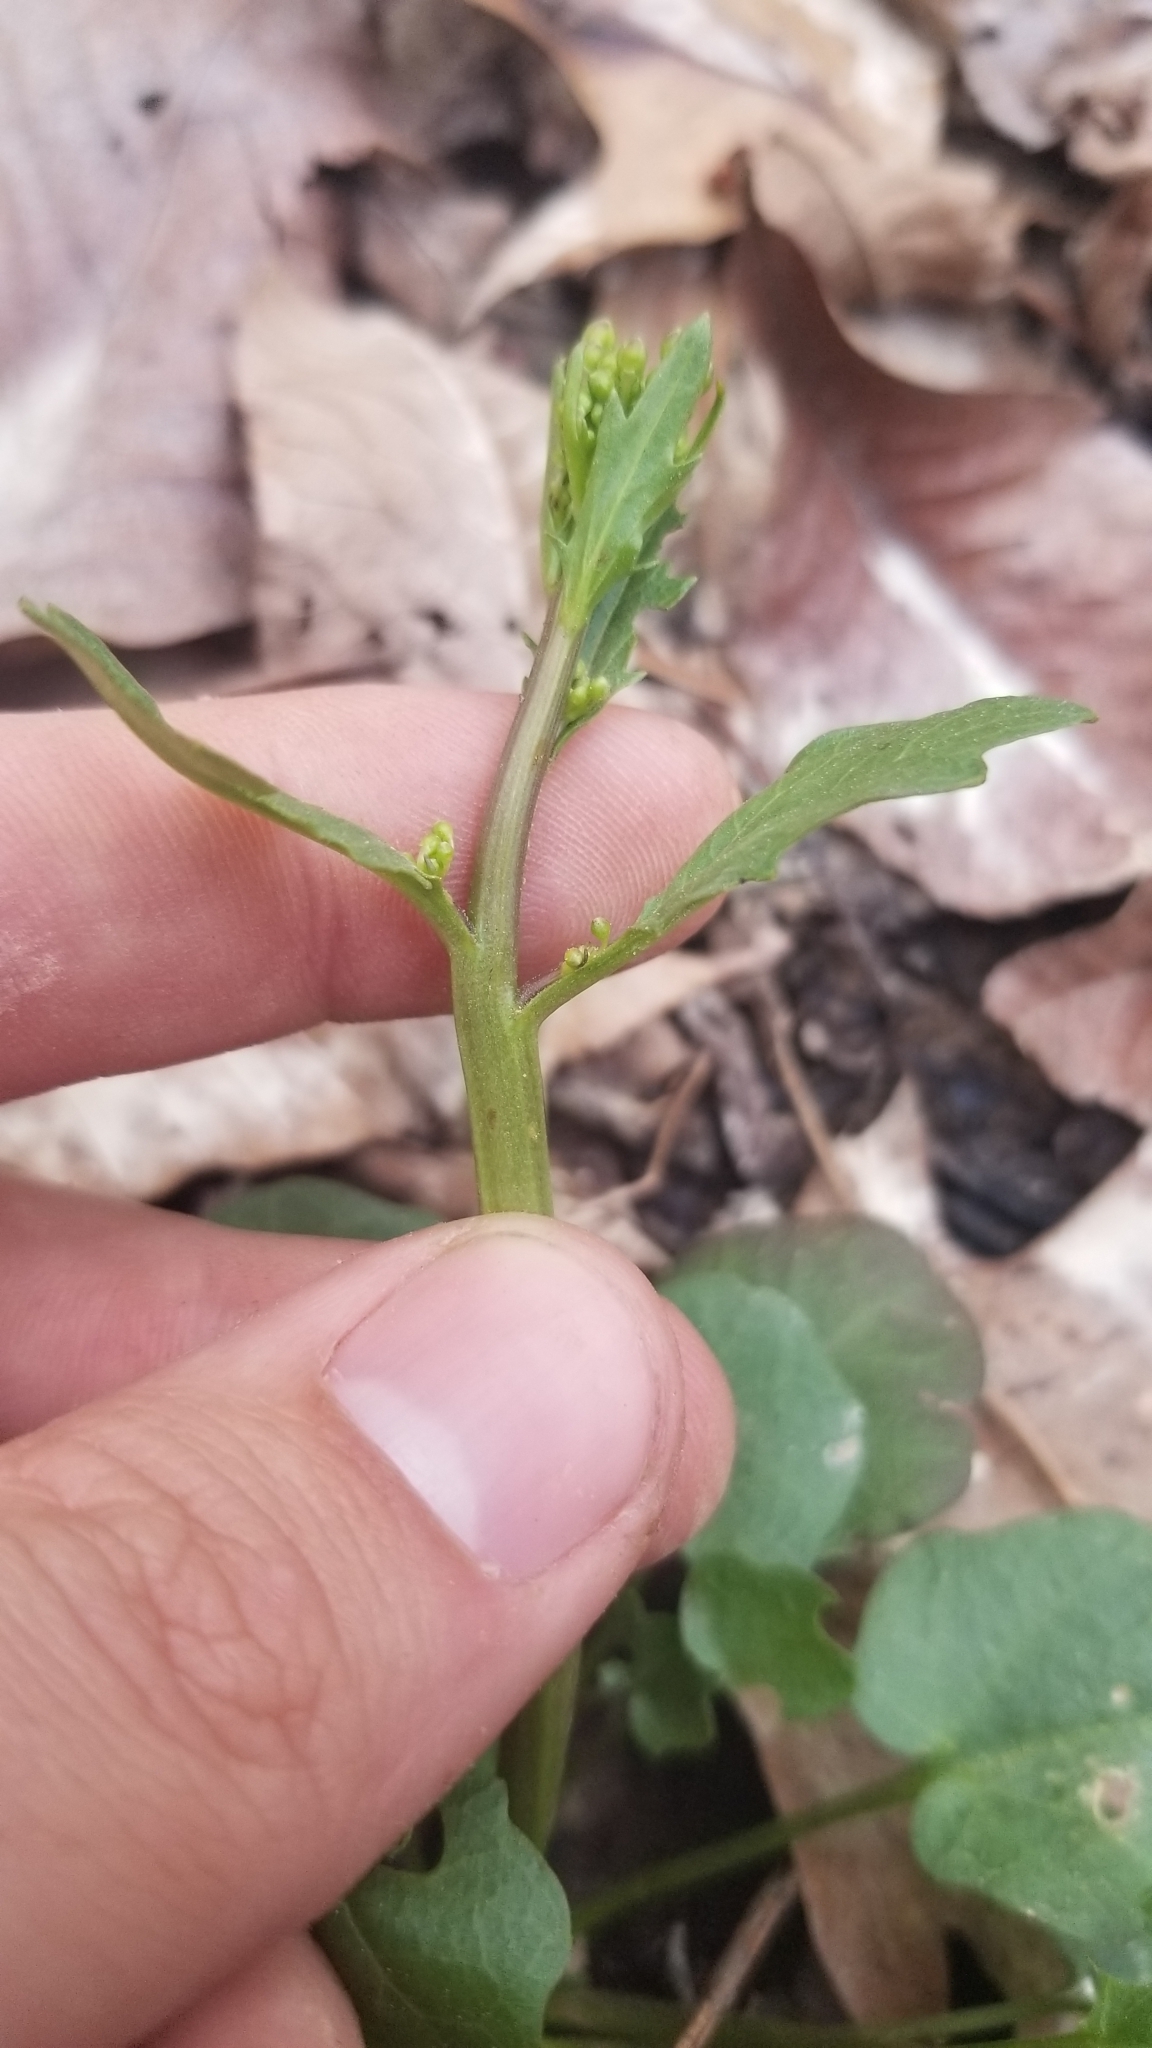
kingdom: Plantae
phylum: Tracheophyta
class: Magnoliopsida
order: Brassicales
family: Brassicaceae
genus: Cardamine
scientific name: Cardamine bulbosa
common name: Spring cress
